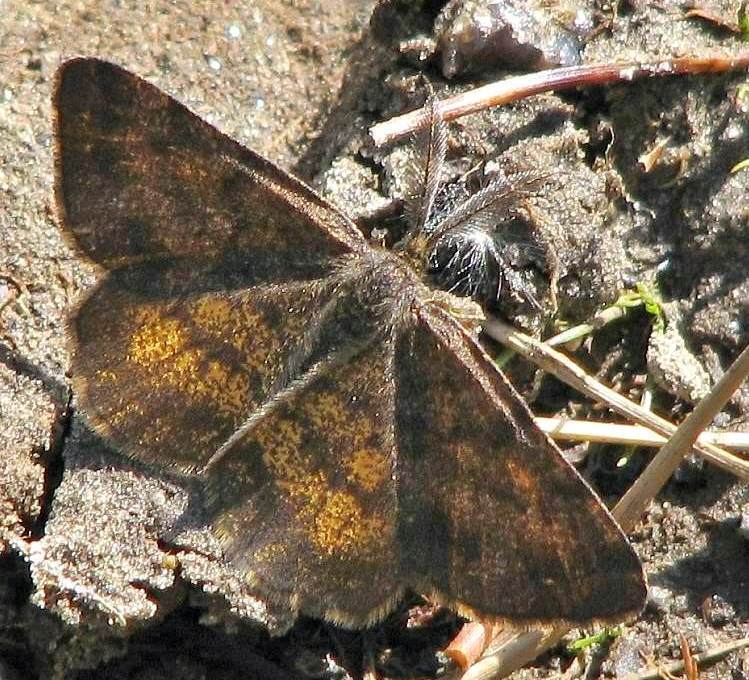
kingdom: Animalia
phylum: Arthropoda
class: Insecta
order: Lepidoptera
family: Geometridae
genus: Ematurga
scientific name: Ematurga amitaria
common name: Cranberry spanworm moth
